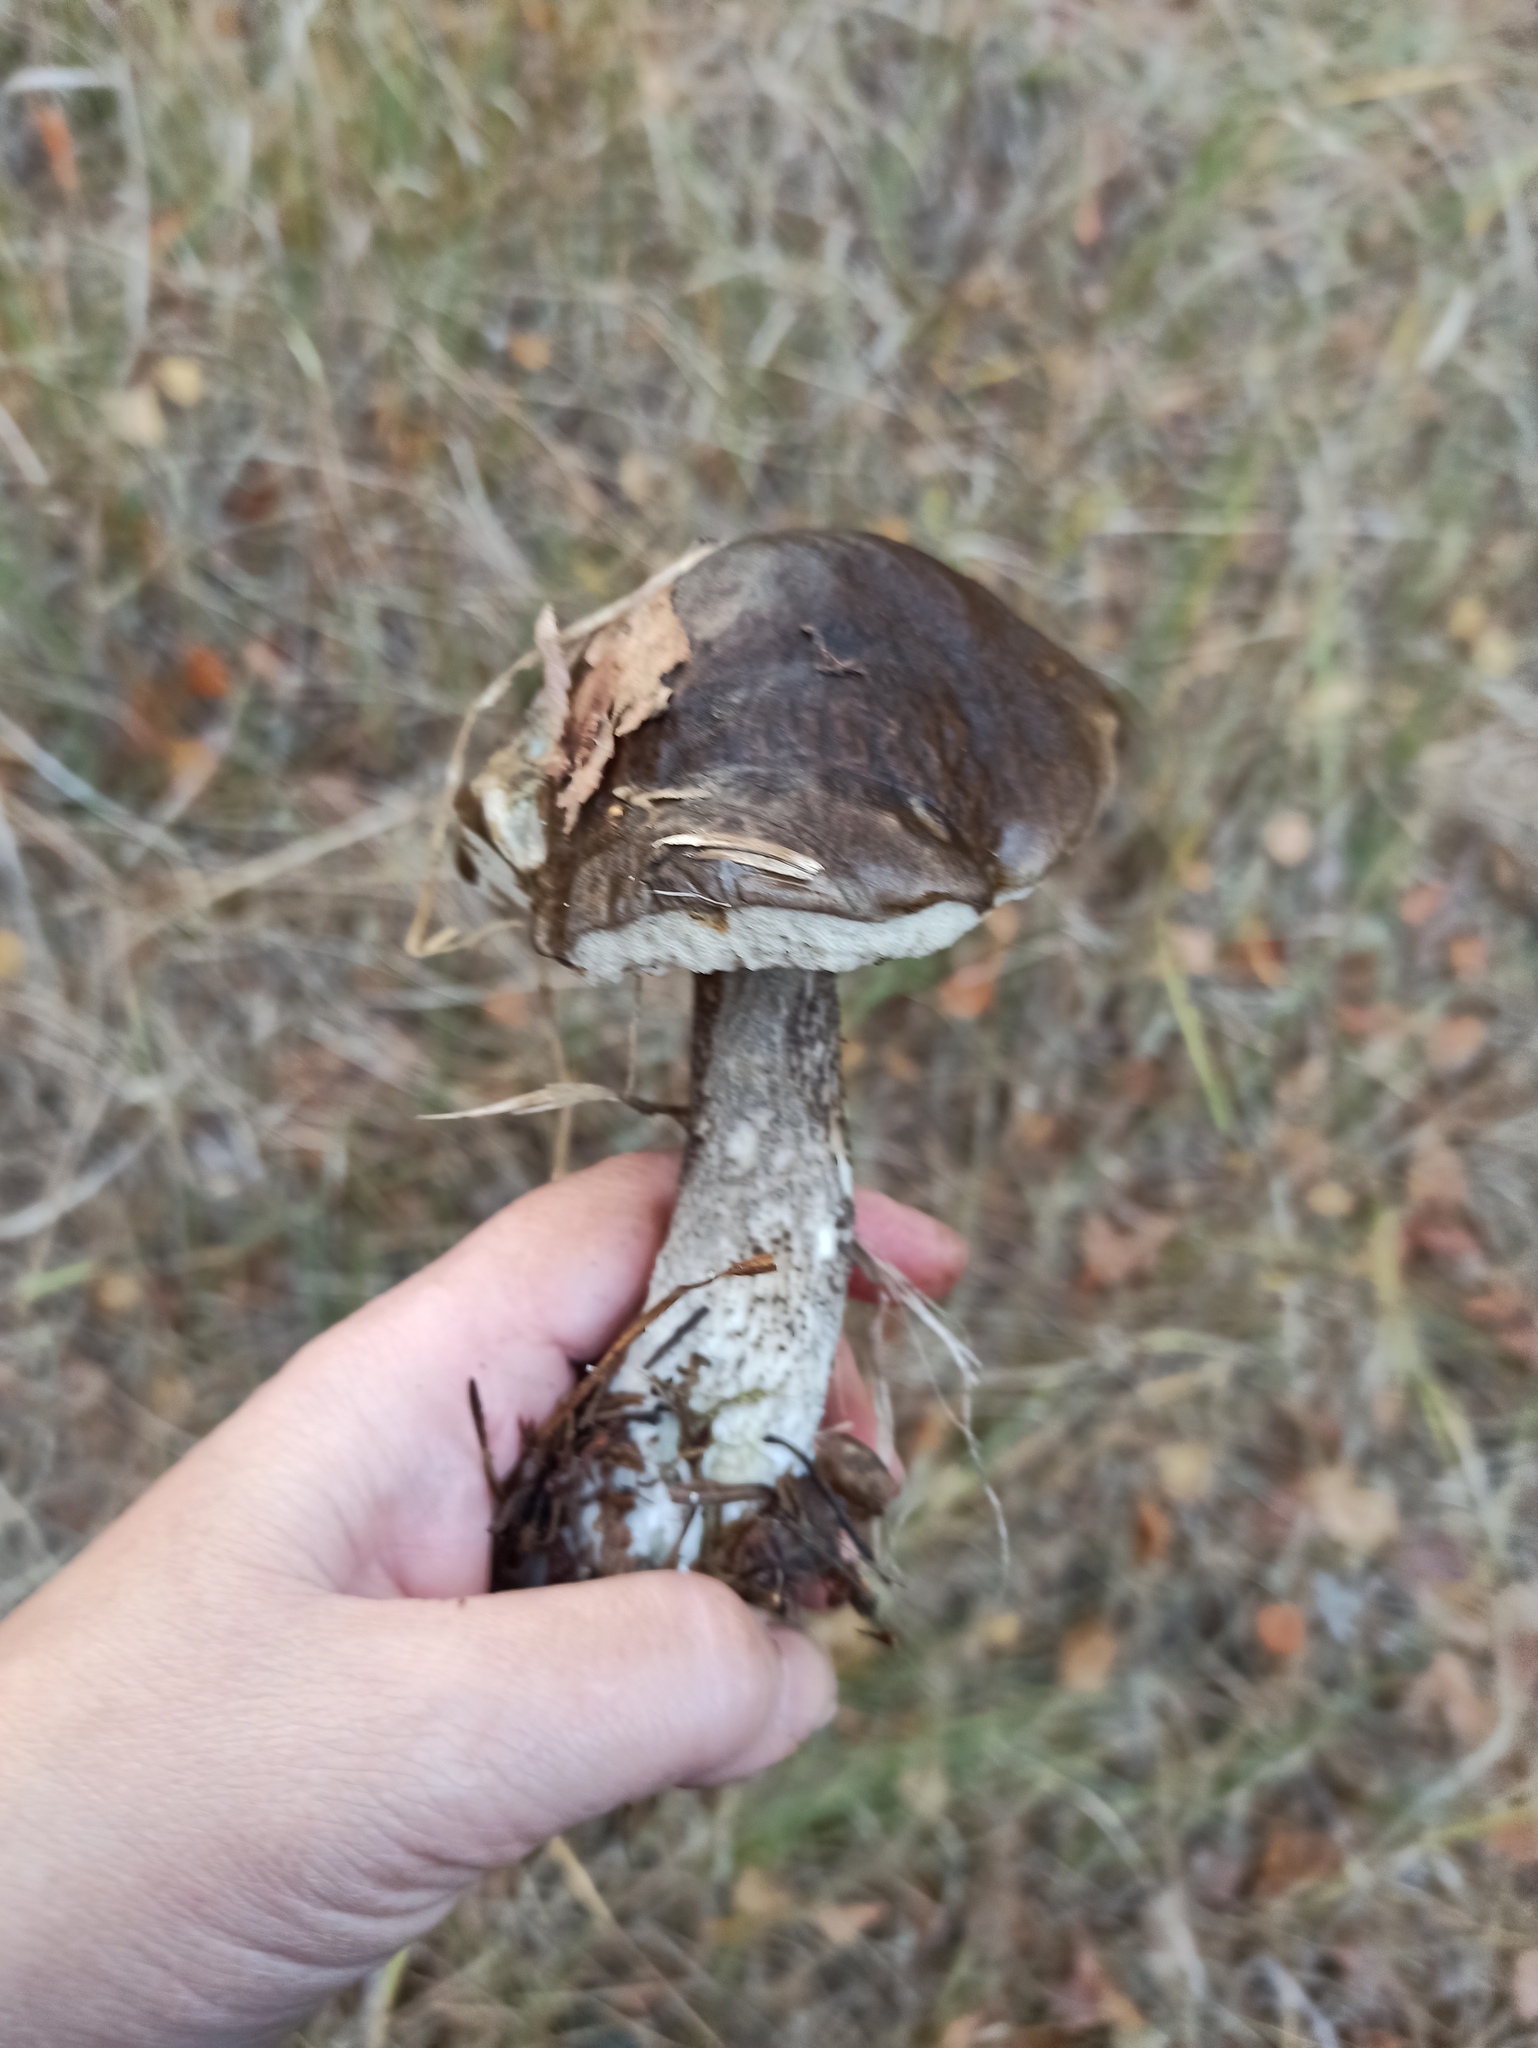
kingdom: Fungi
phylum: Basidiomycota
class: Agaricomycetes
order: Boletales
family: Boletaceae
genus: Leccinum
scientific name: Leccinum scabrum
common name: Blushing bolete
